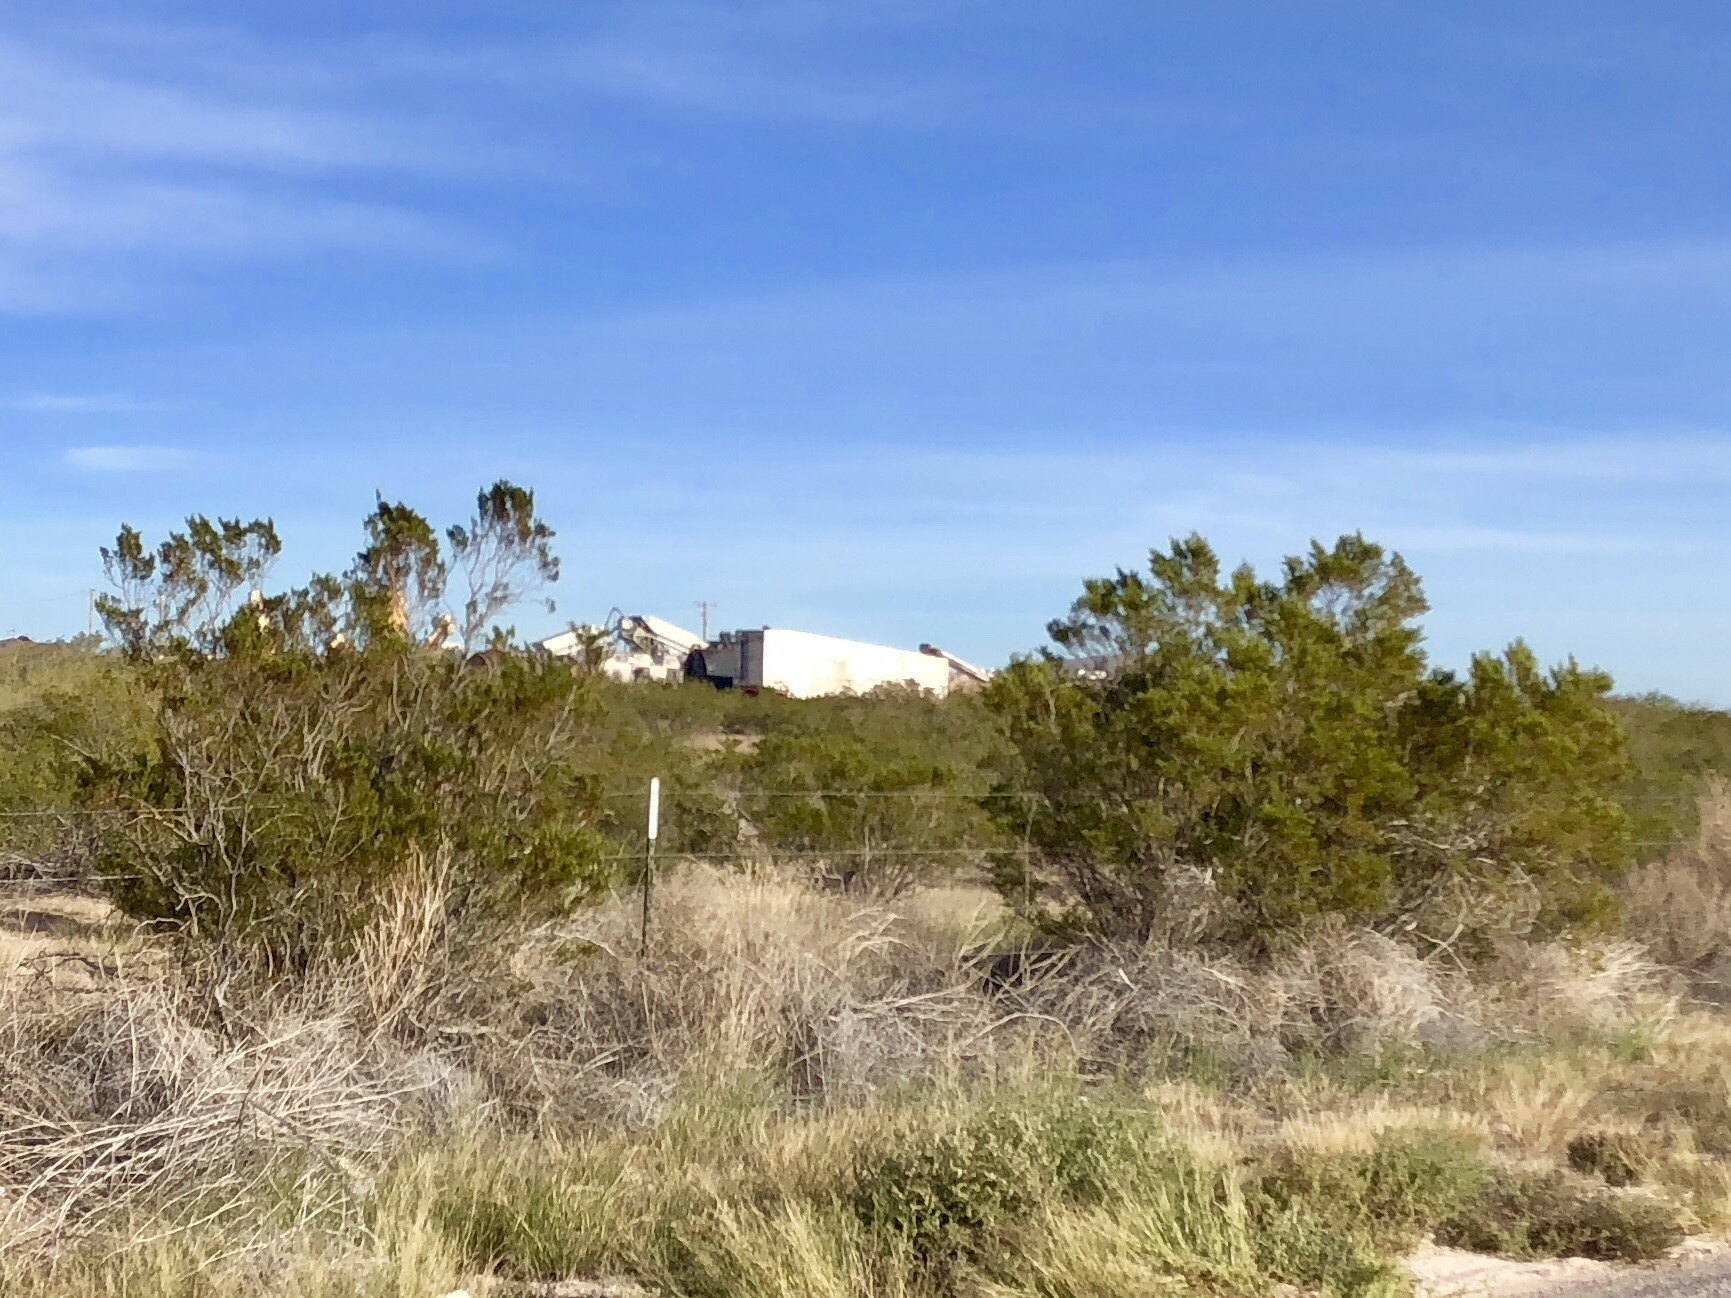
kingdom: Plantae
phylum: Tracheophyta
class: Magnoliopsida
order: Zygophyllales
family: Zygophyllaceae
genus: Larrea
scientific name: Larrea tridentata
